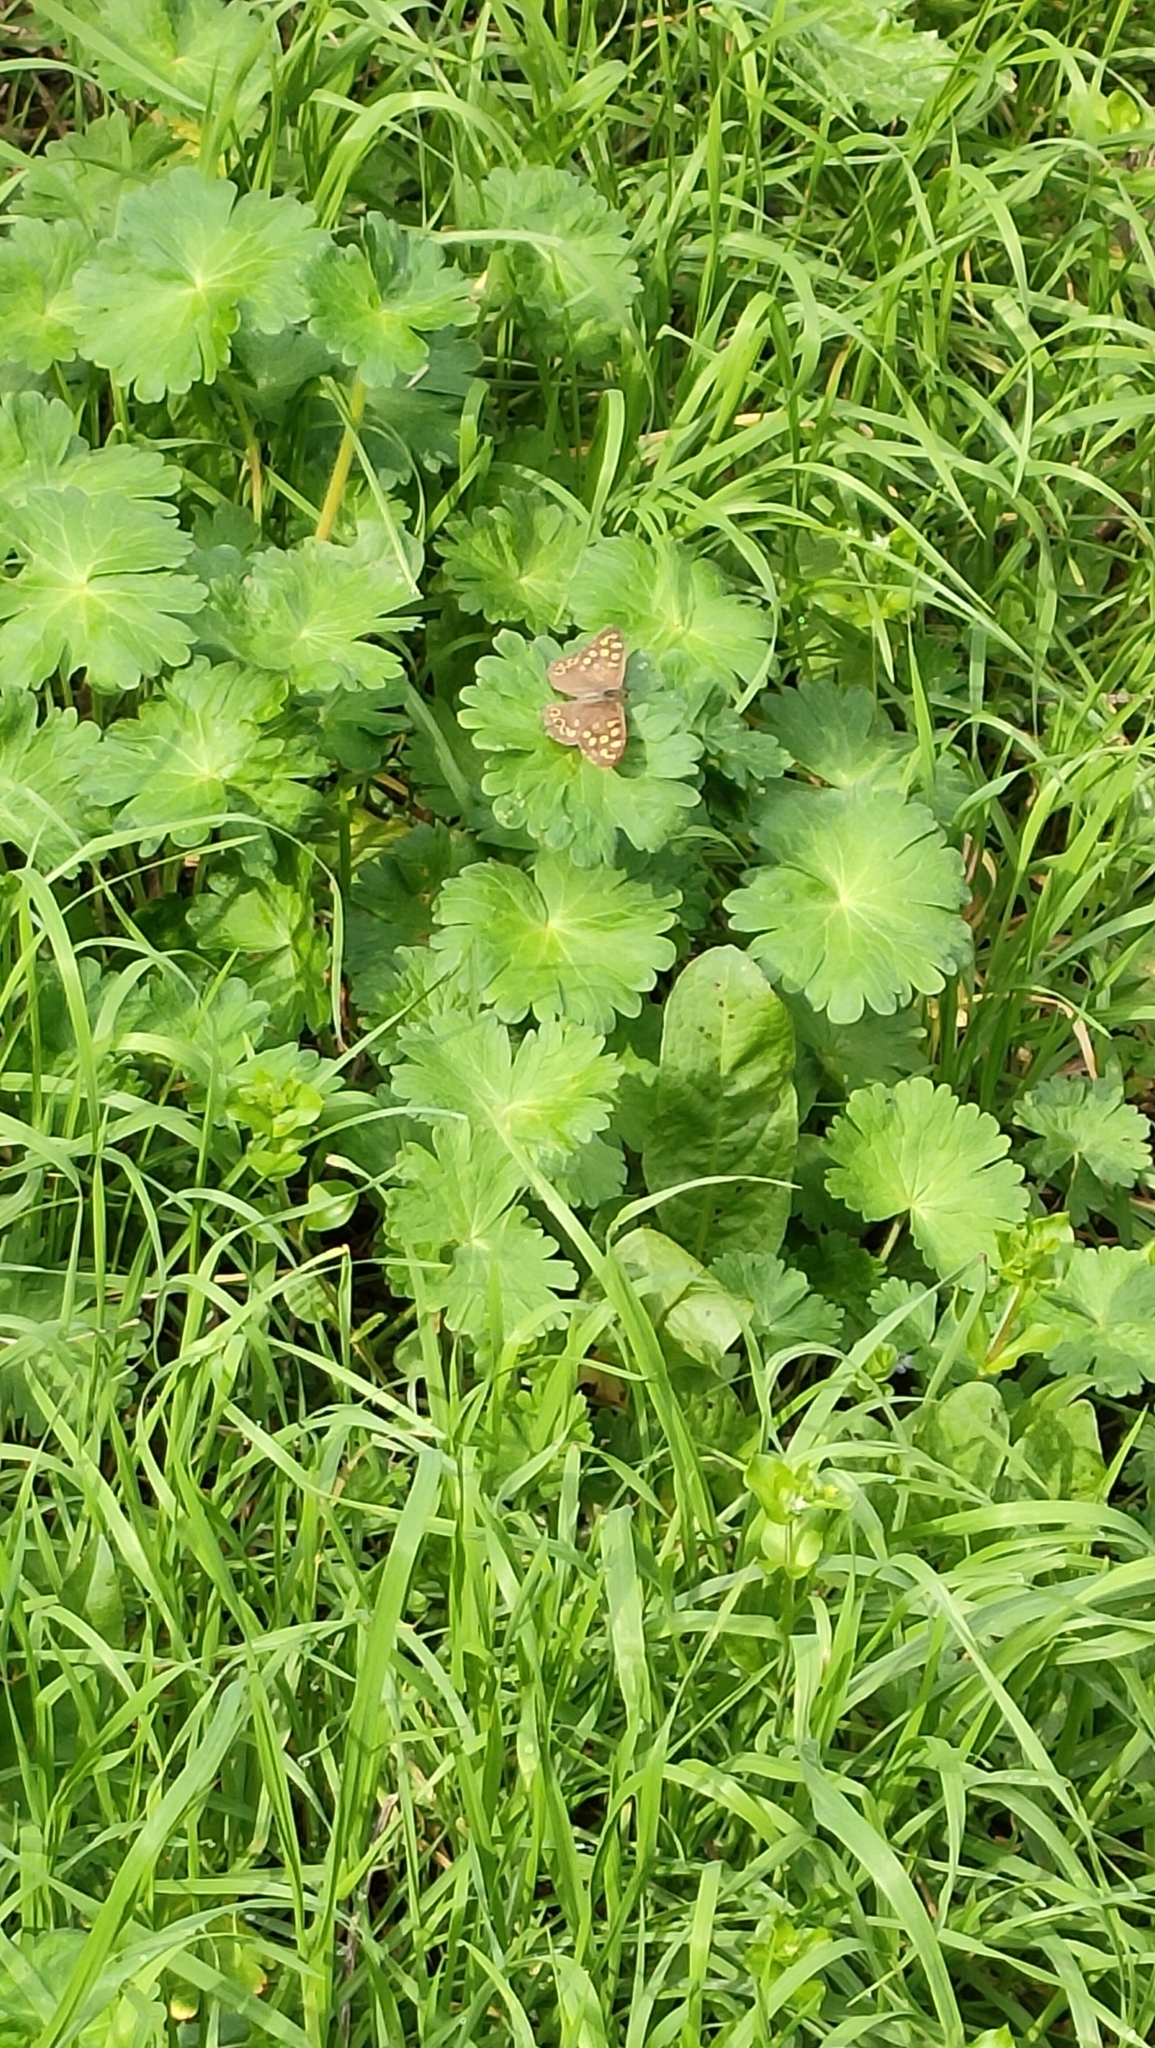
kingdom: Animalia
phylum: Arthropoda
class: Insecta
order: Lepidoptera
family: Nymphalidae
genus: Pararge
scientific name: Pararge aegeria
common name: Speckled wood
